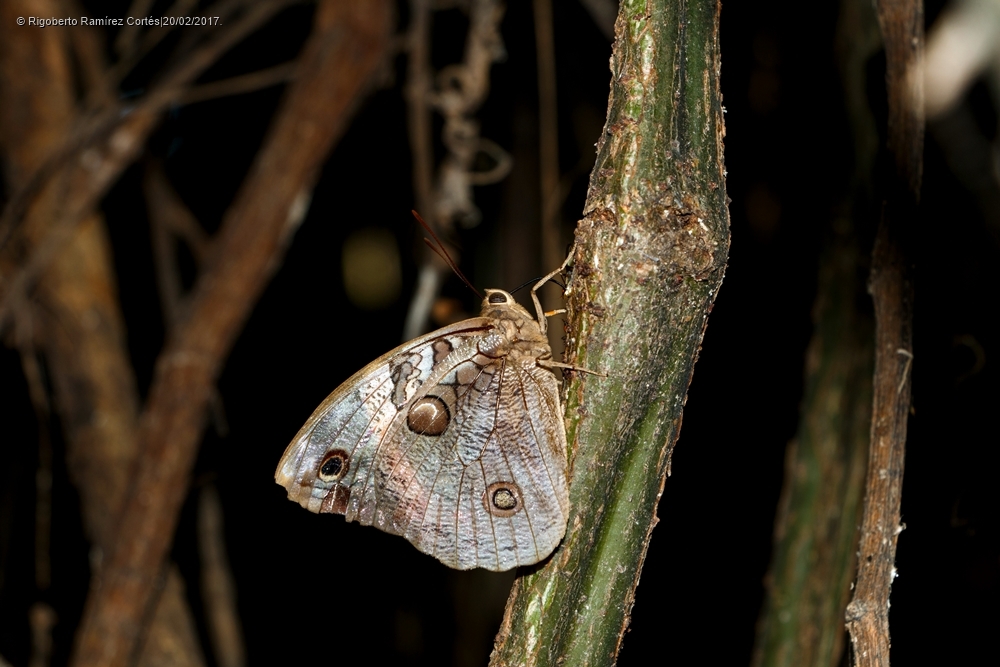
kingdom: Animalia
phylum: Arthropoda
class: Insecta
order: Lepidoptera
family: Nymphalidae
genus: Opsiphanes
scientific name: Opsiphanes fabricii
